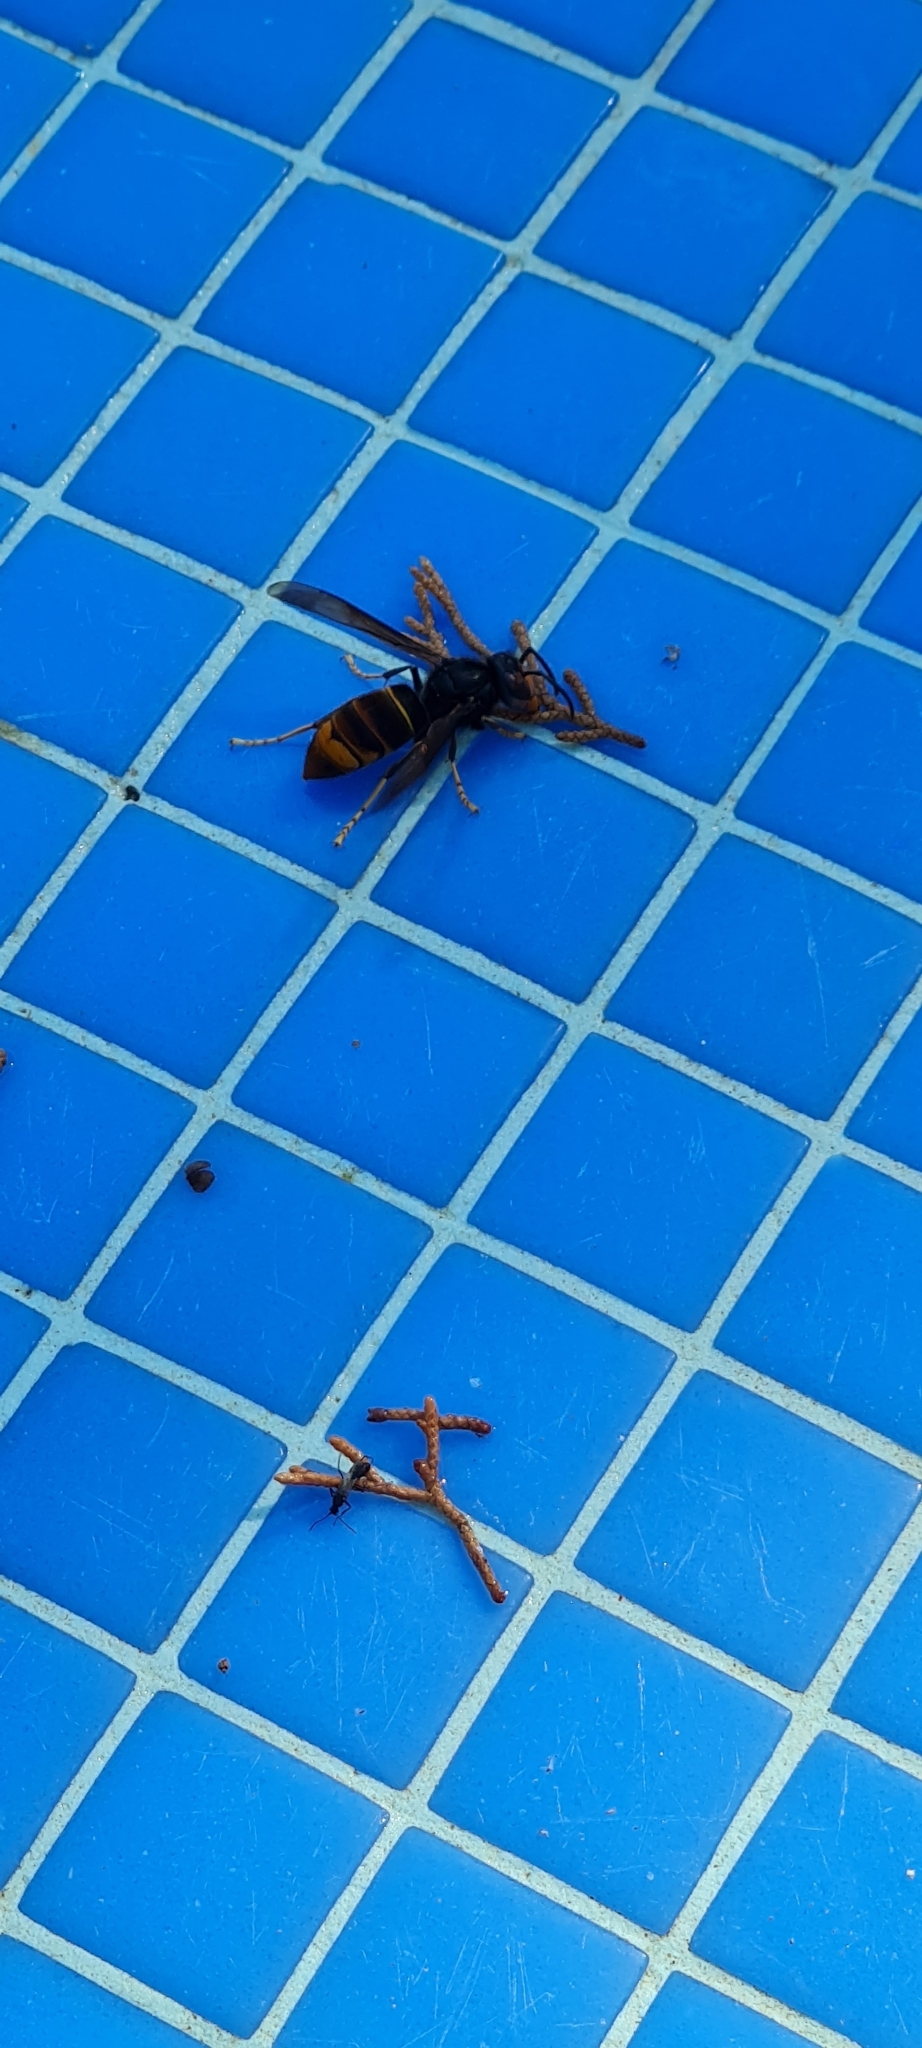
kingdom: Animalia
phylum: Arthropoda
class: Insecta
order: Hymenoptera
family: Vespidae
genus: Vespa
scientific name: Vespa velutina
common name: Asian hornet
